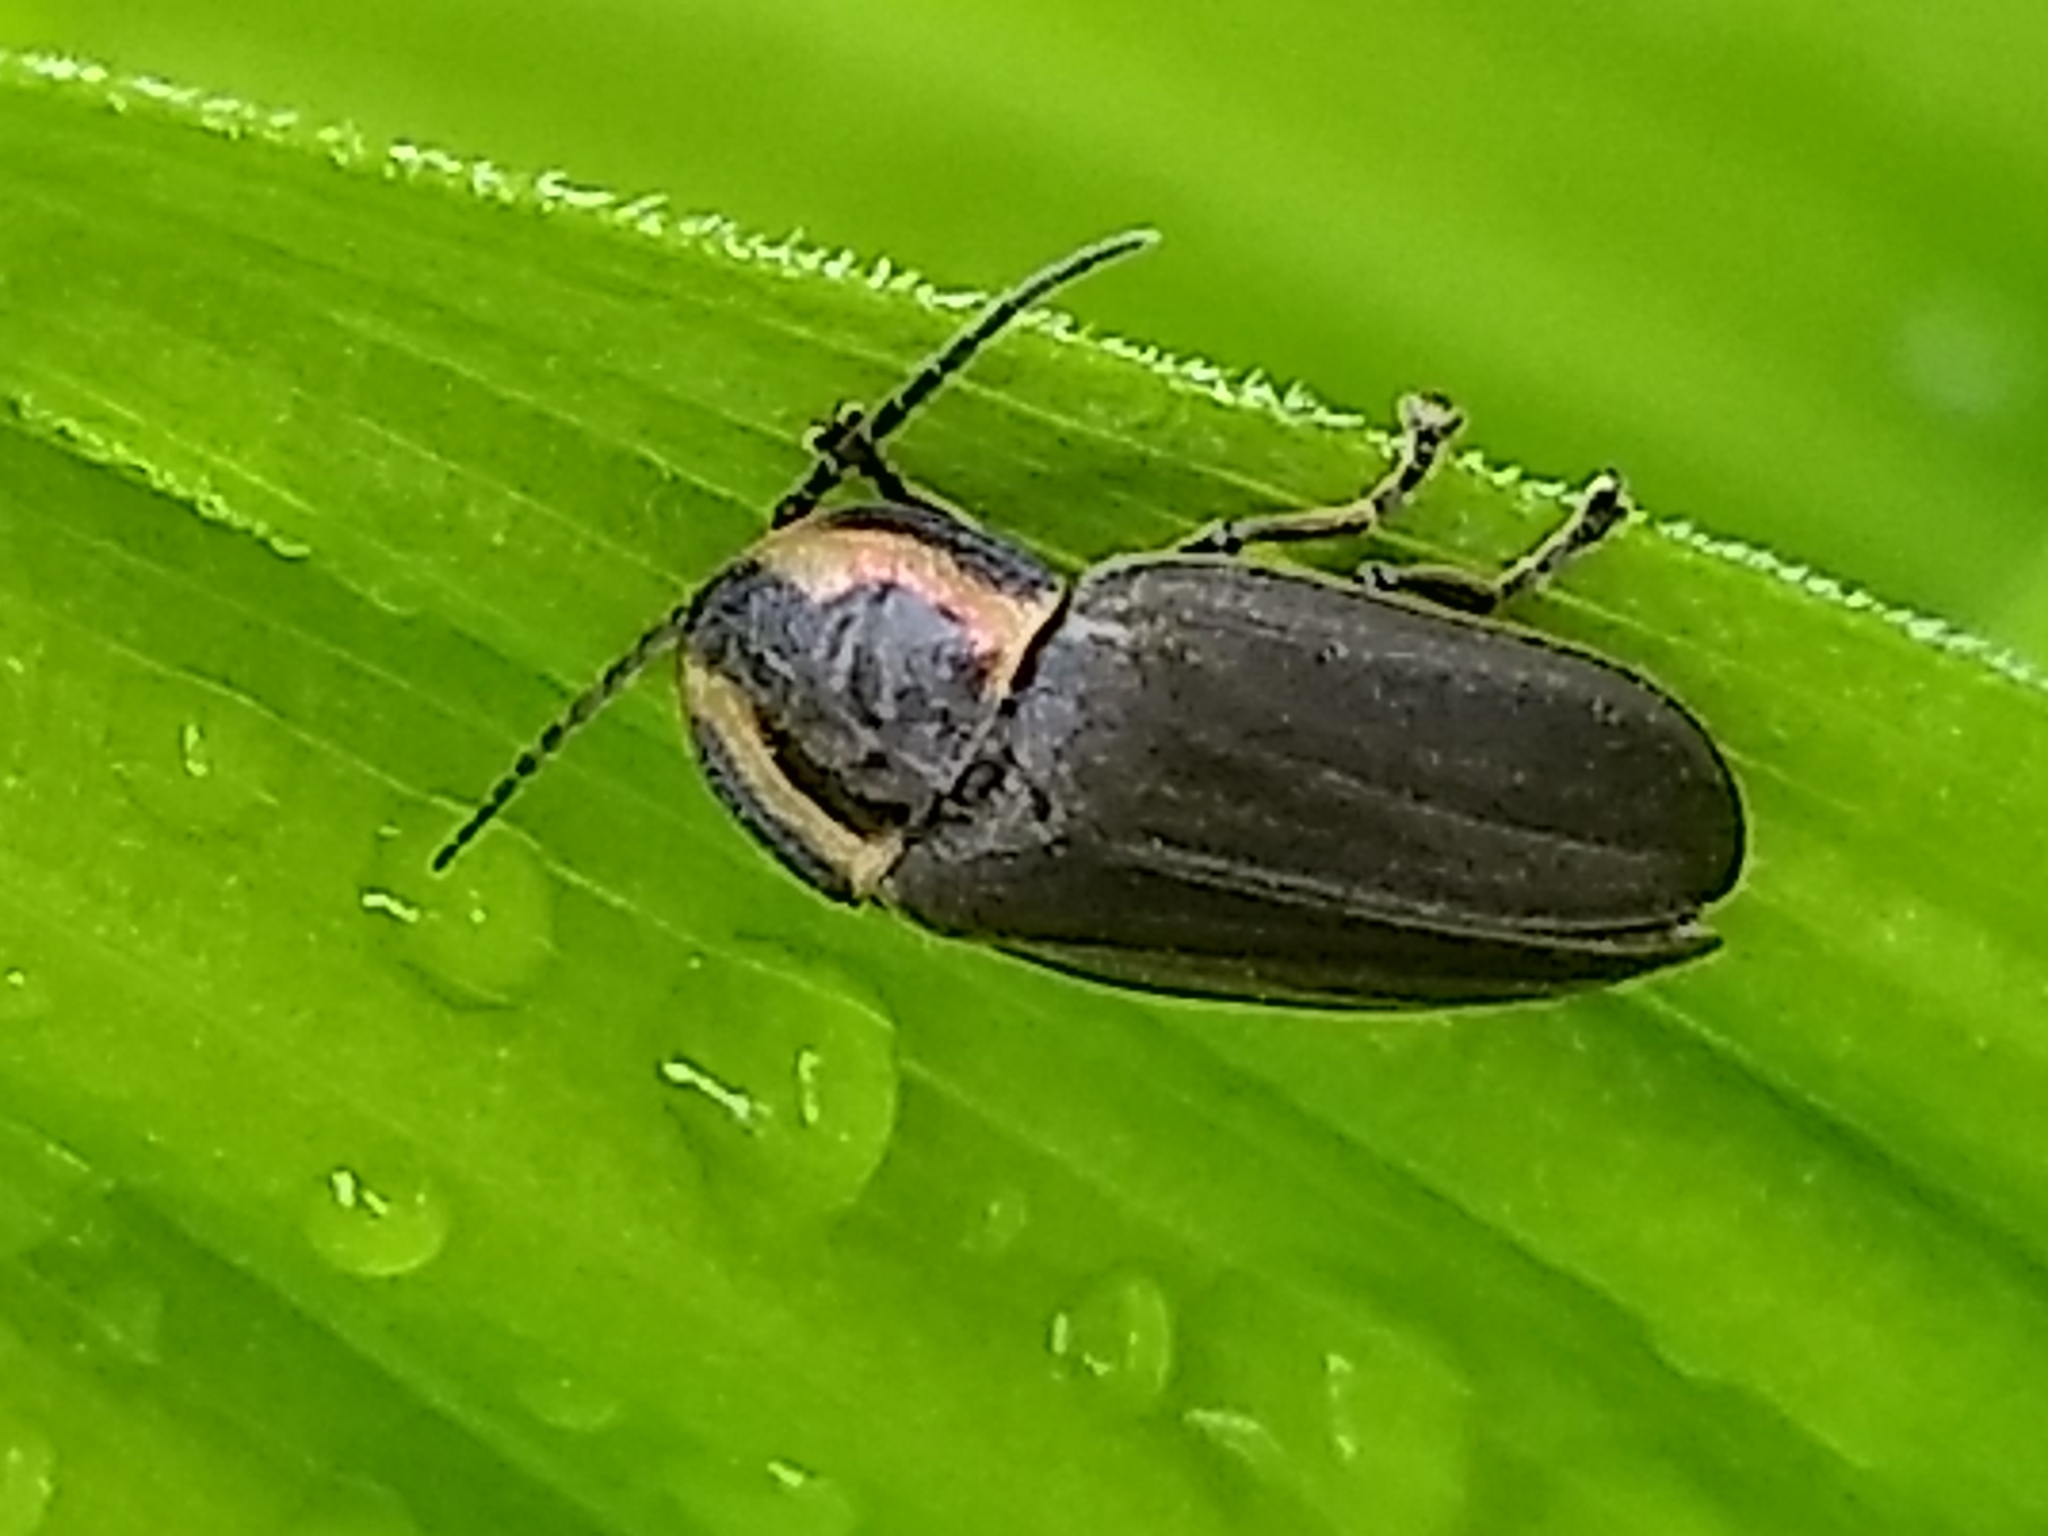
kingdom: Animalia
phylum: Arthropoda
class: Insecta
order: Coleoptera
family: Lampyridae
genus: Photinus
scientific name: Photinus corrusca
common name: Winter firefly
